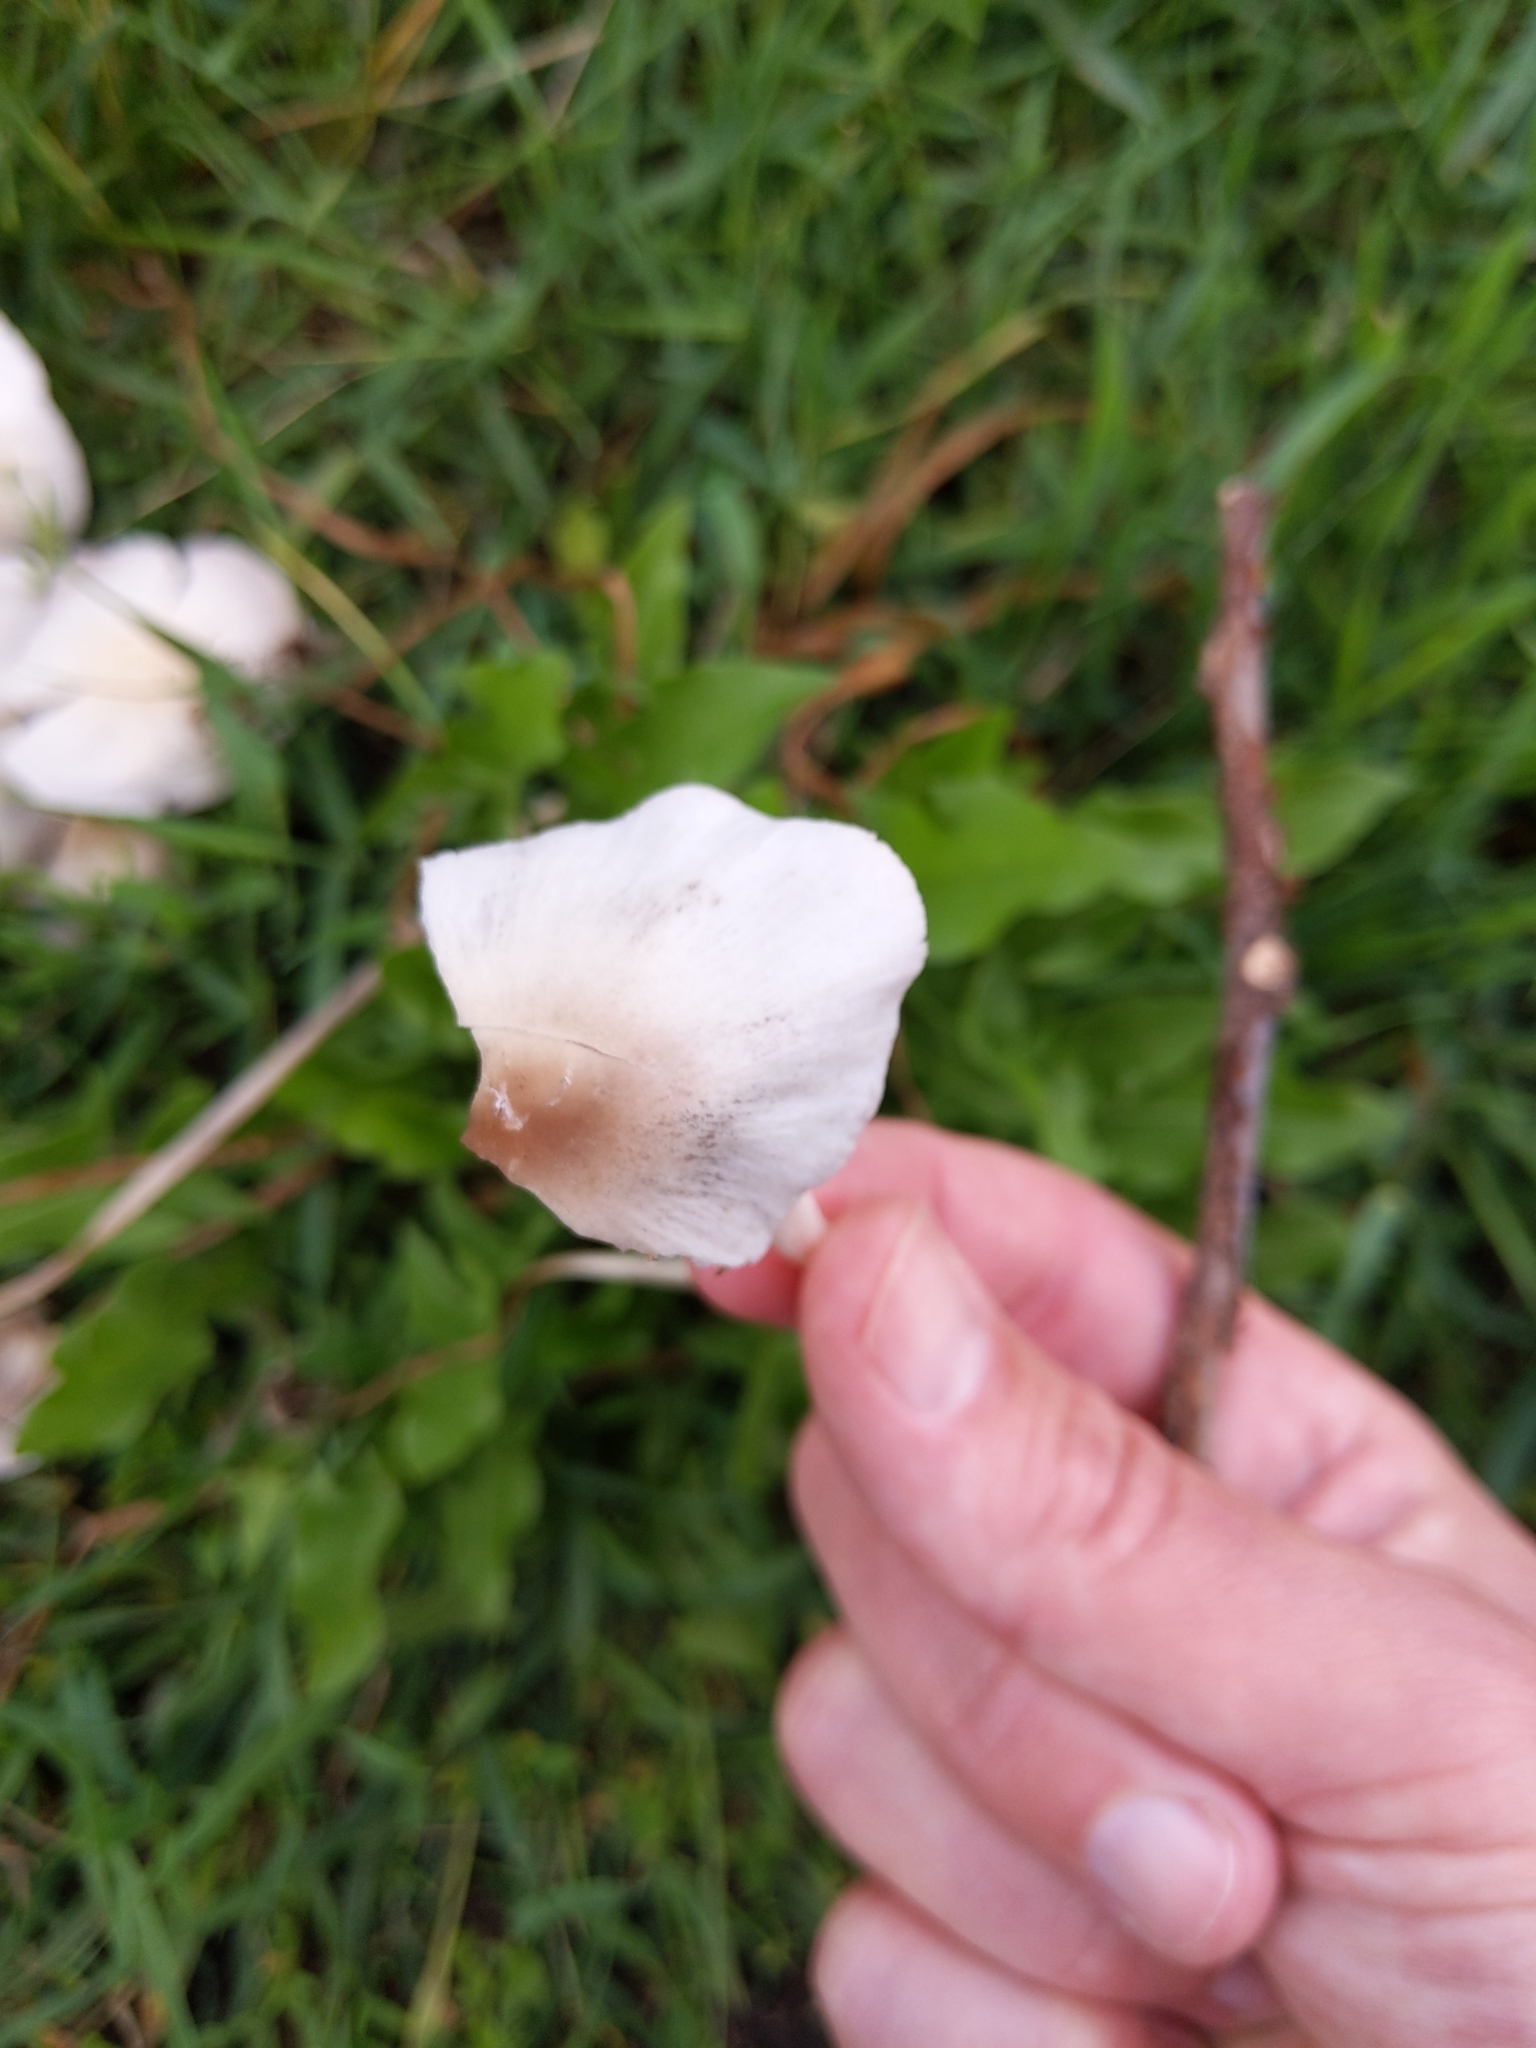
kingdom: Fungi
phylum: Basidiomycota
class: Agaricomycetes
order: Agaricales
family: Psathyrellaceae
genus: Candolleomyces
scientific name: Candolleomyces candolleanus
